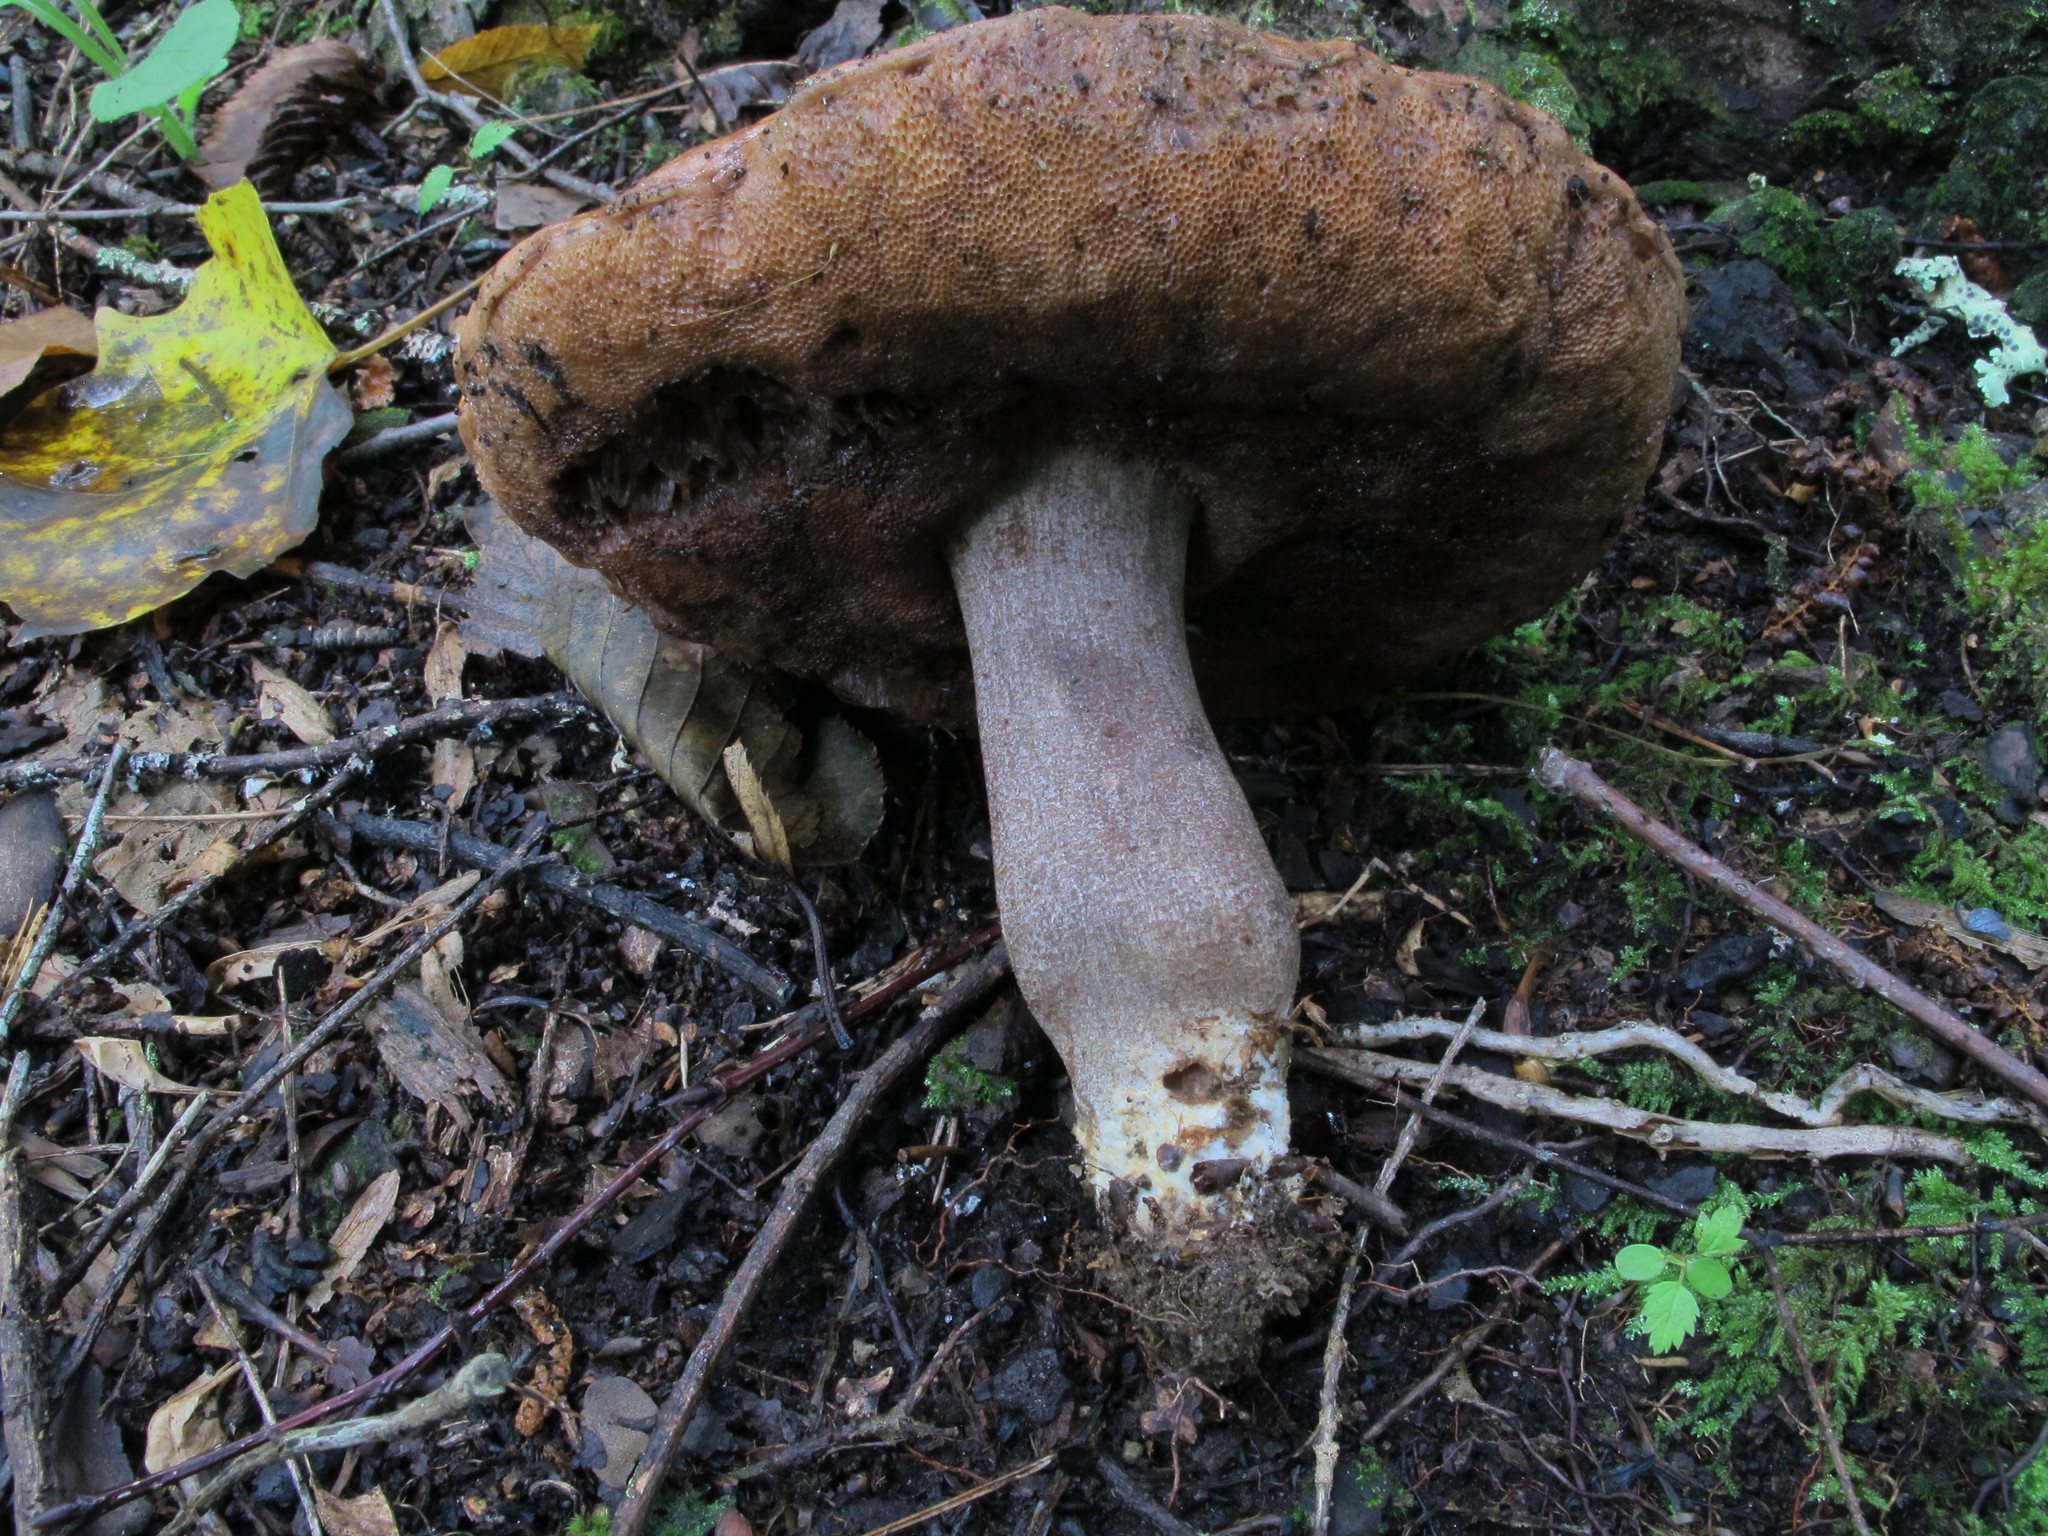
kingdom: Fungi
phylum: Basidiomycota
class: Agaricomycetes
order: Boletales
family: Boletaceae
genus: Sutorius
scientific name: Sutorius eximius
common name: Lilac-brown bolete
